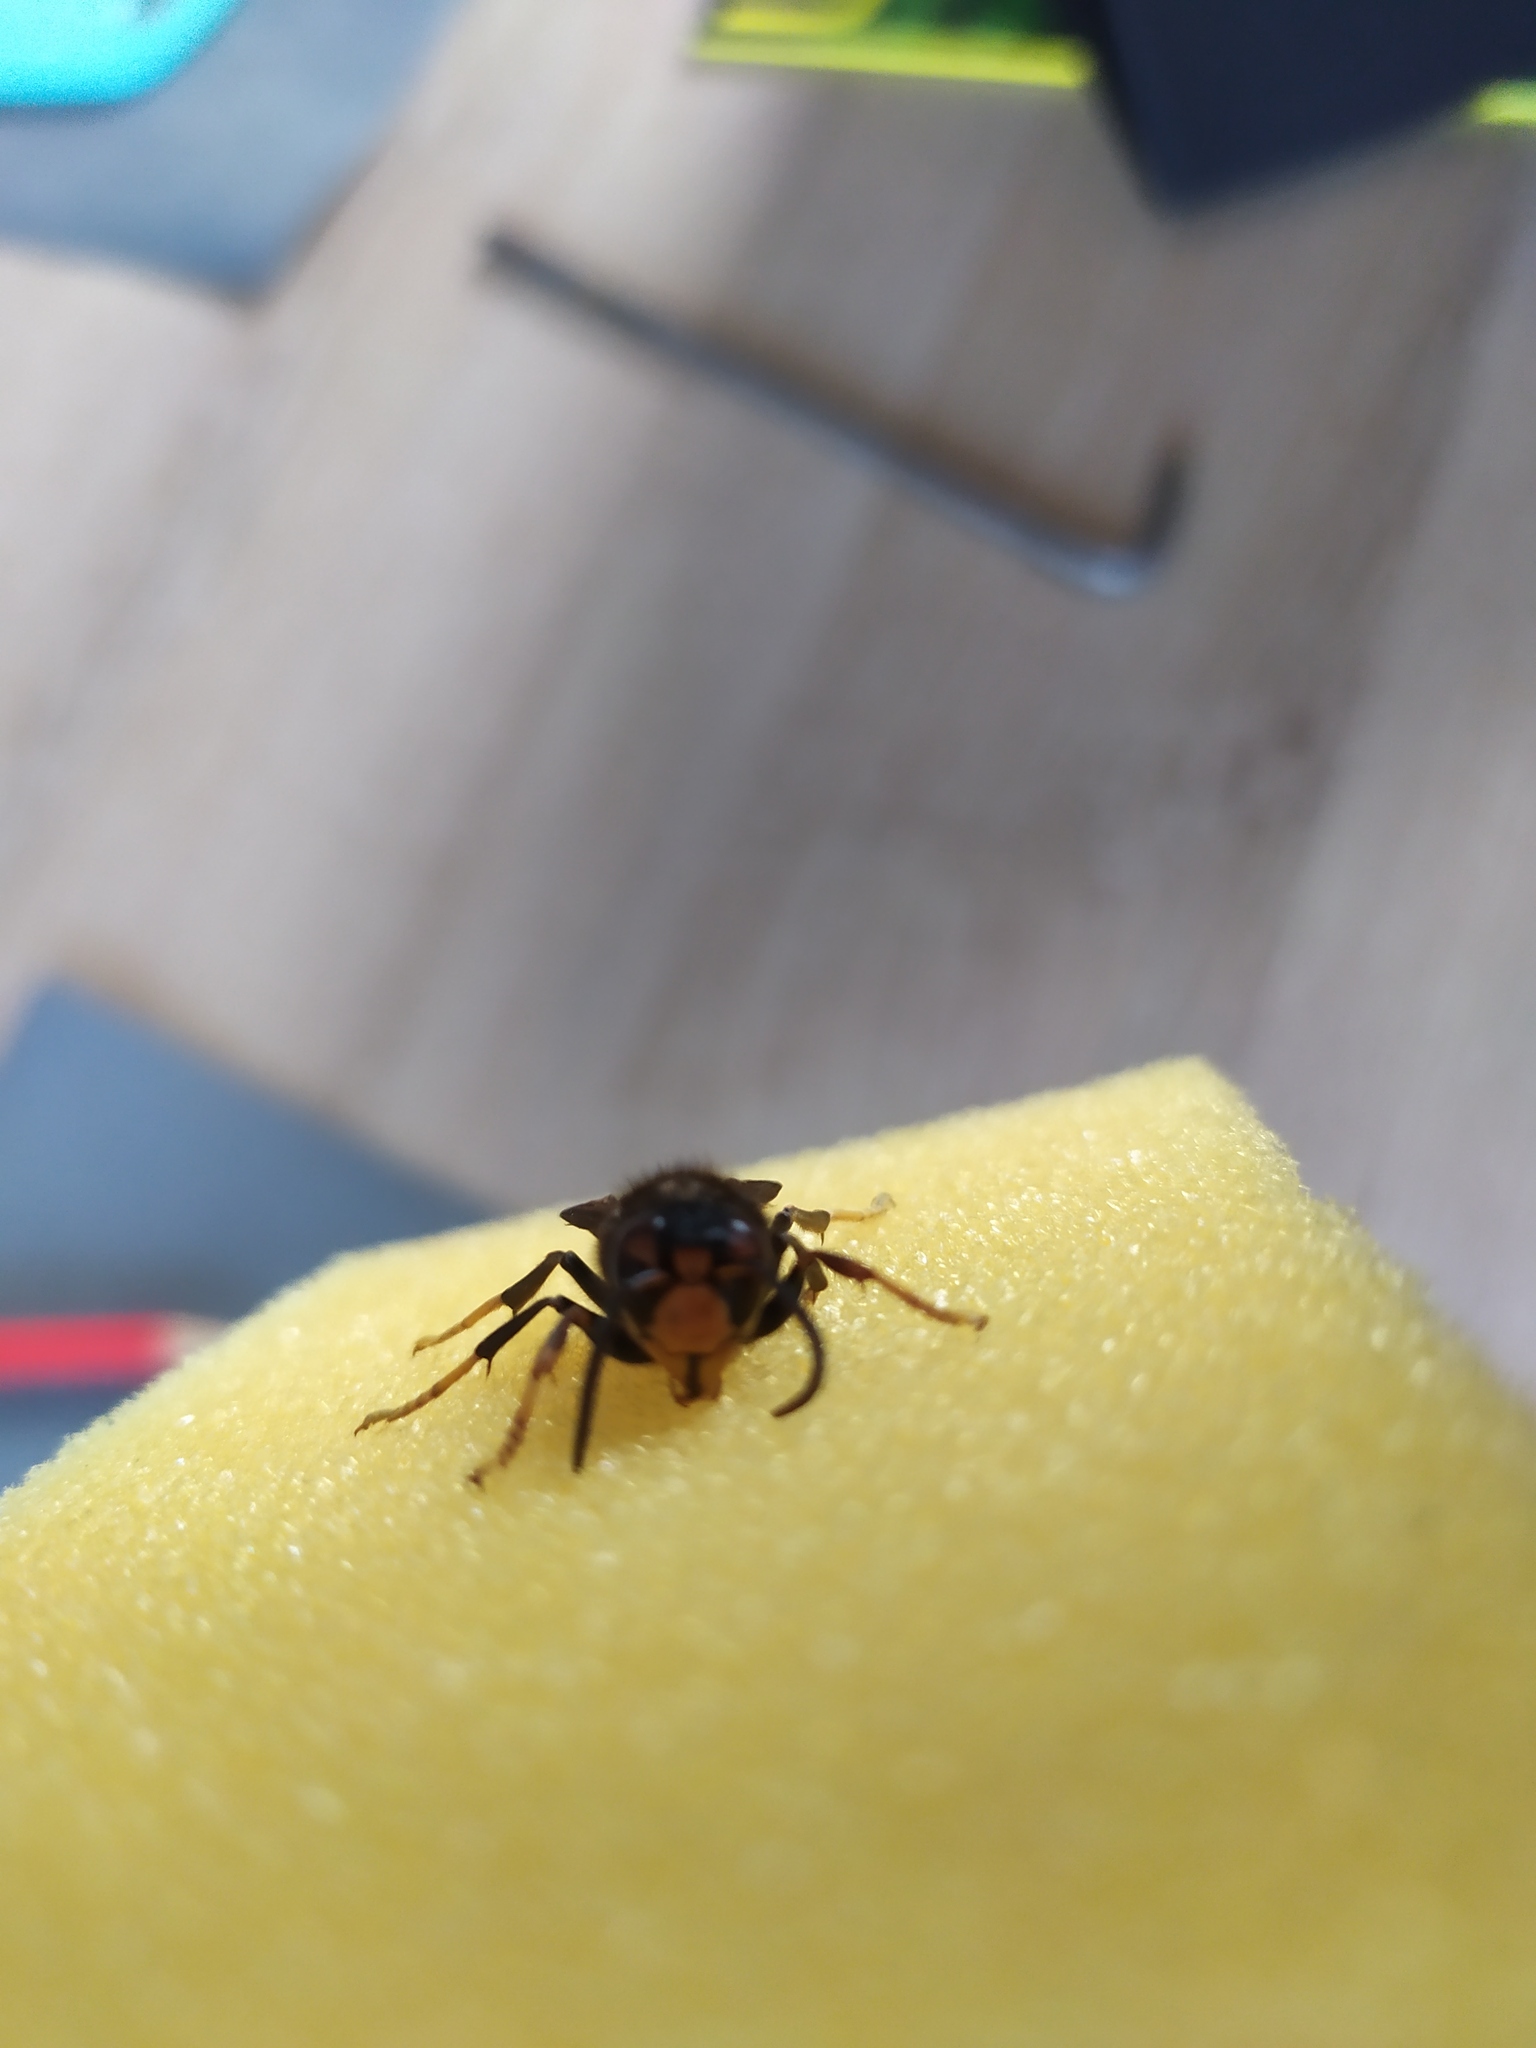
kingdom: Animalia
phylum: Arthropoda
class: Insecta
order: Hymenoptera
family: Vespidae
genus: Vespa
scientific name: Vespa velutina
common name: Asian hornet
